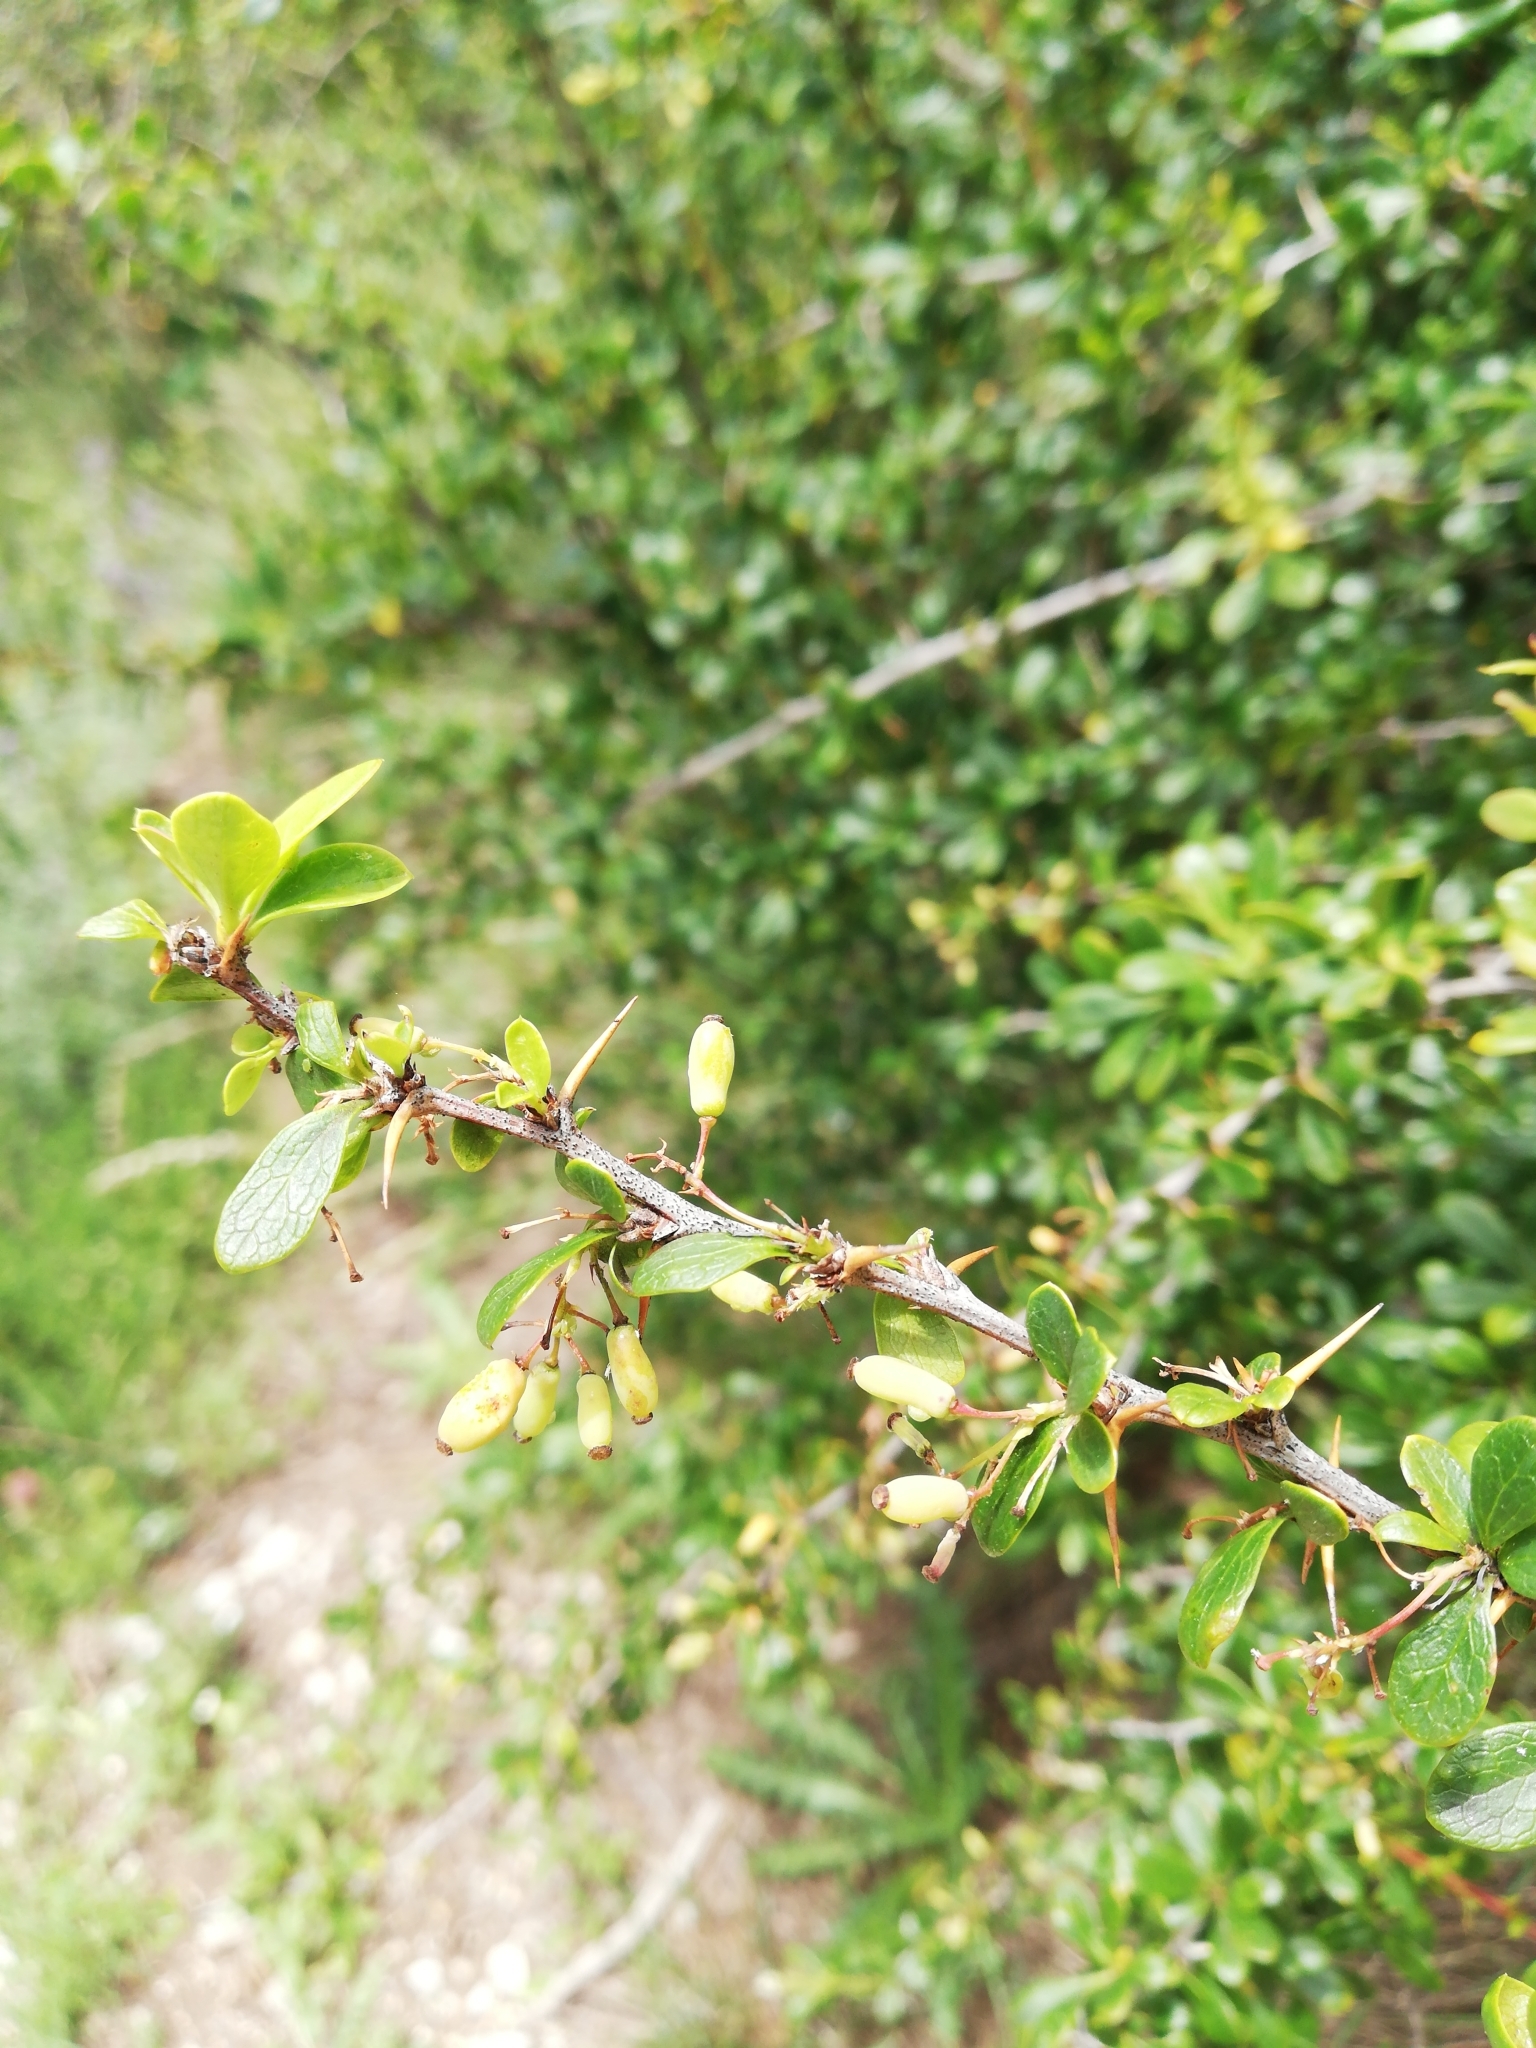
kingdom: Plantae
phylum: Tracheophyta
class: Magnoliopsida
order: Ranunculales
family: Berberidaceae
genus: Berberis
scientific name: Berberis vulgaris
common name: Barberry
